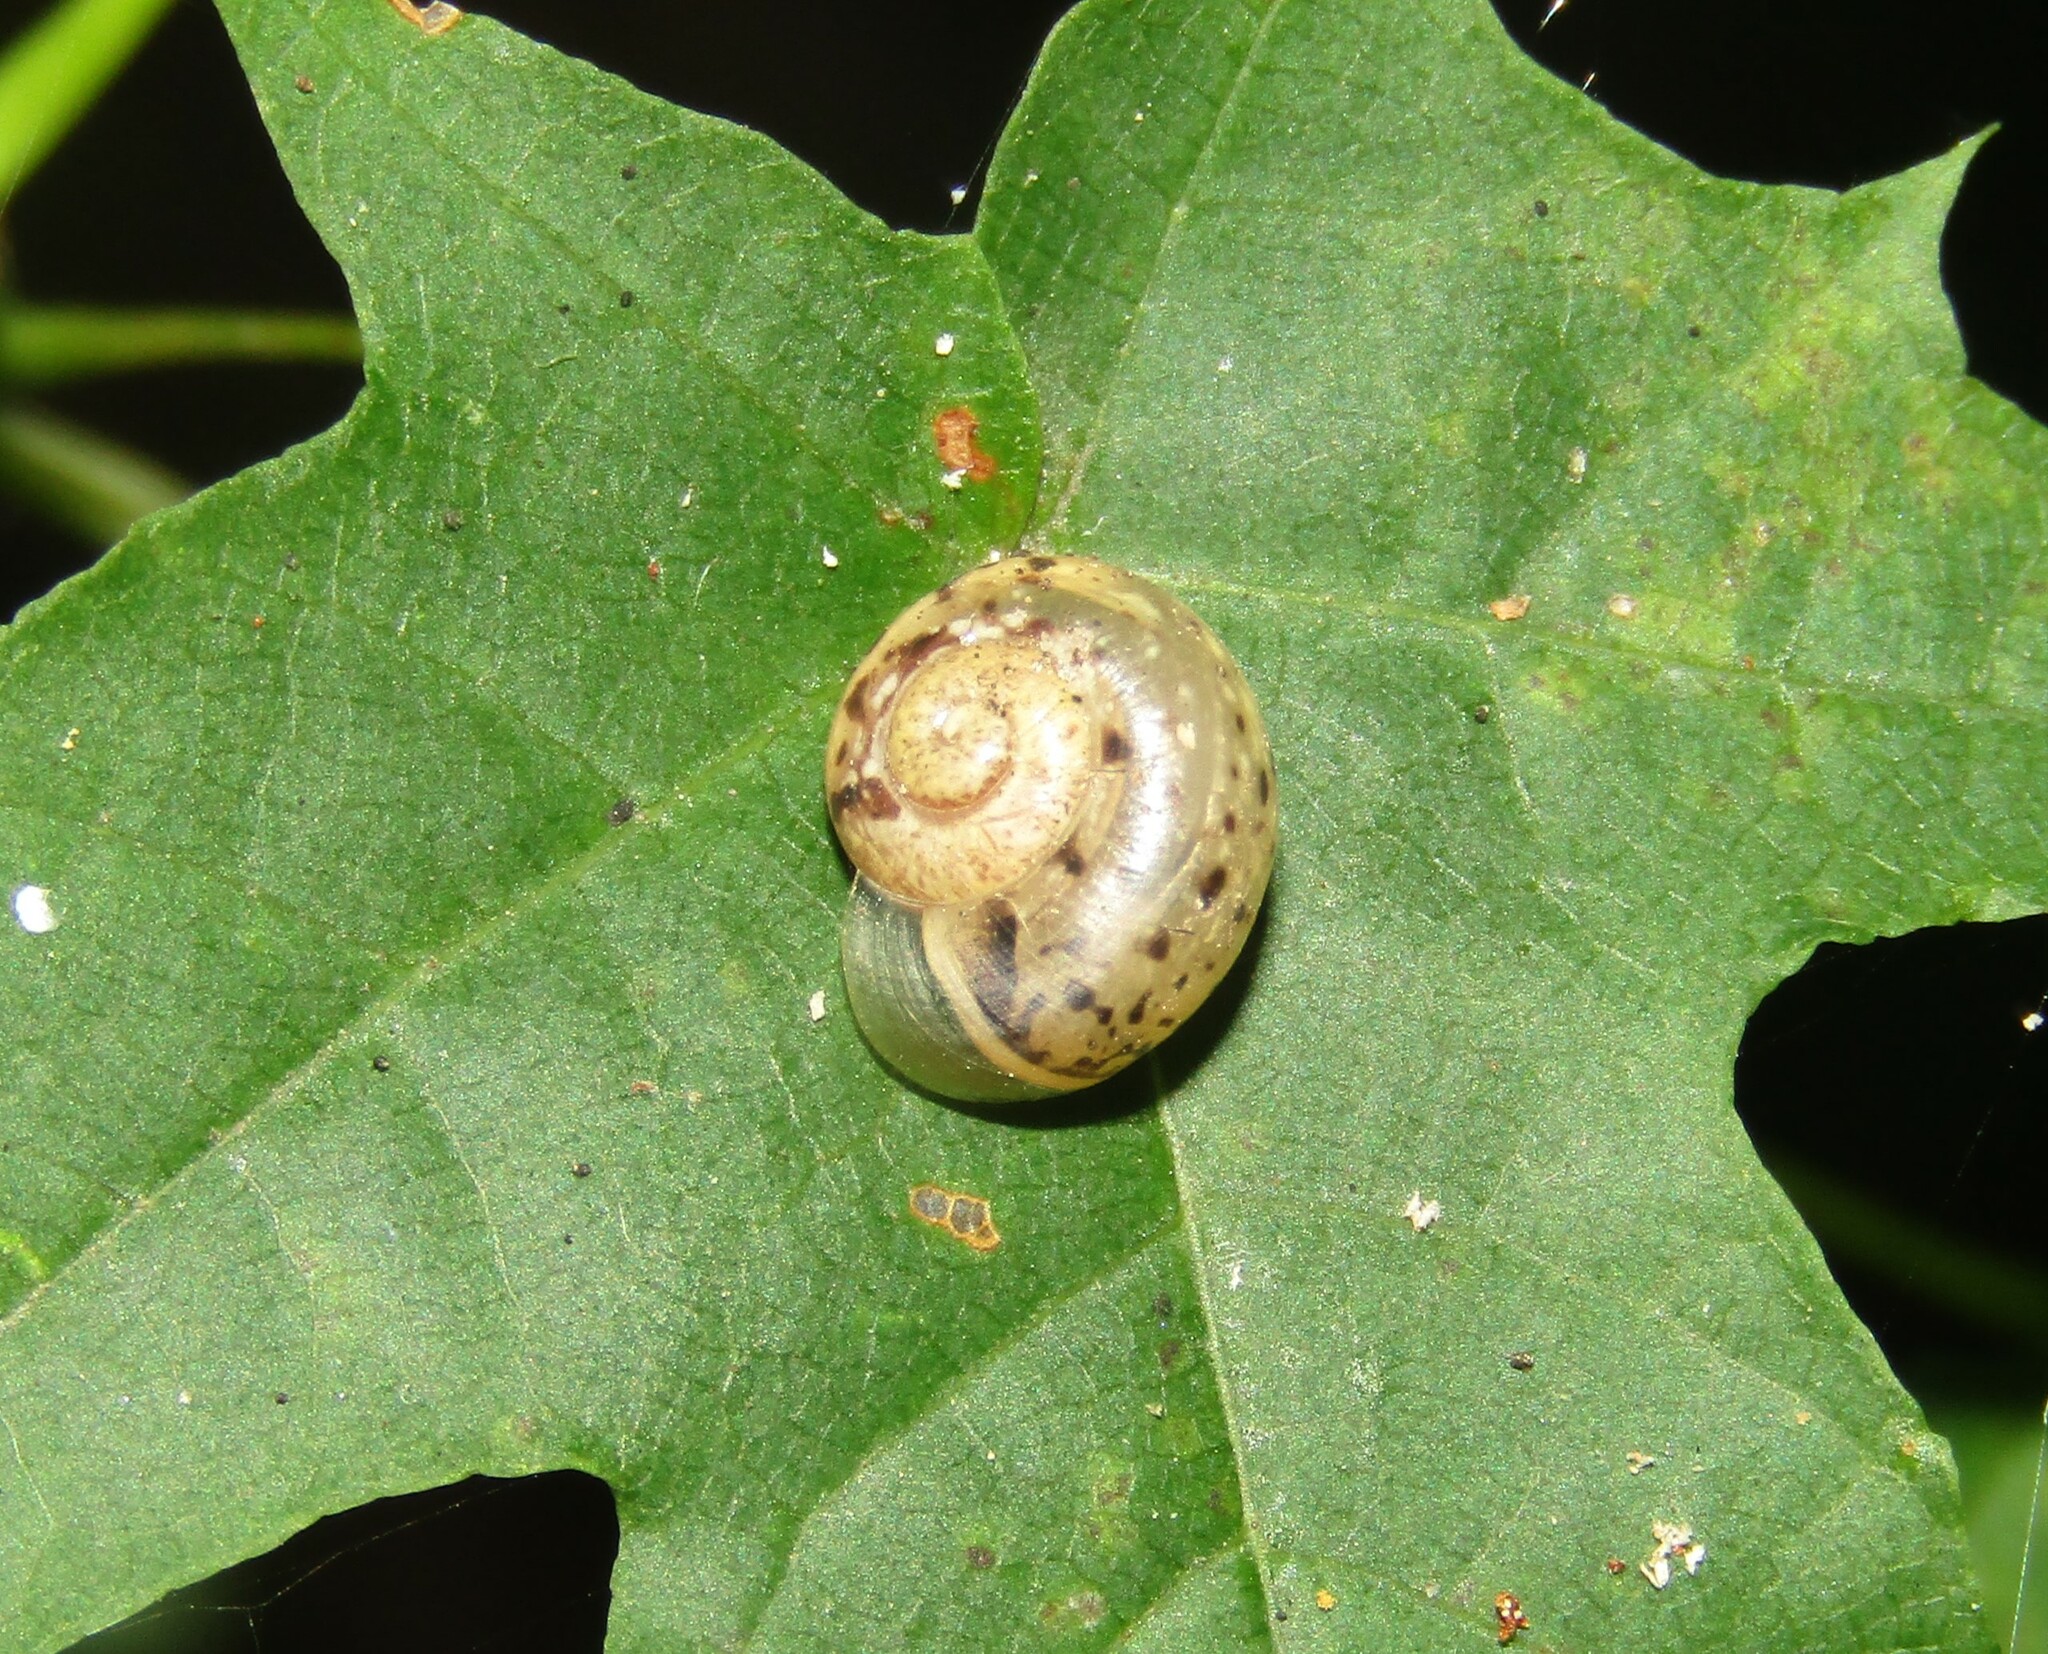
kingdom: Animalia
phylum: Mollusca
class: Gastropoda
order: Stylommatophora
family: Camaenidae
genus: Fruticicola
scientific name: Fruticicola fruticum
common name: Bush snail
